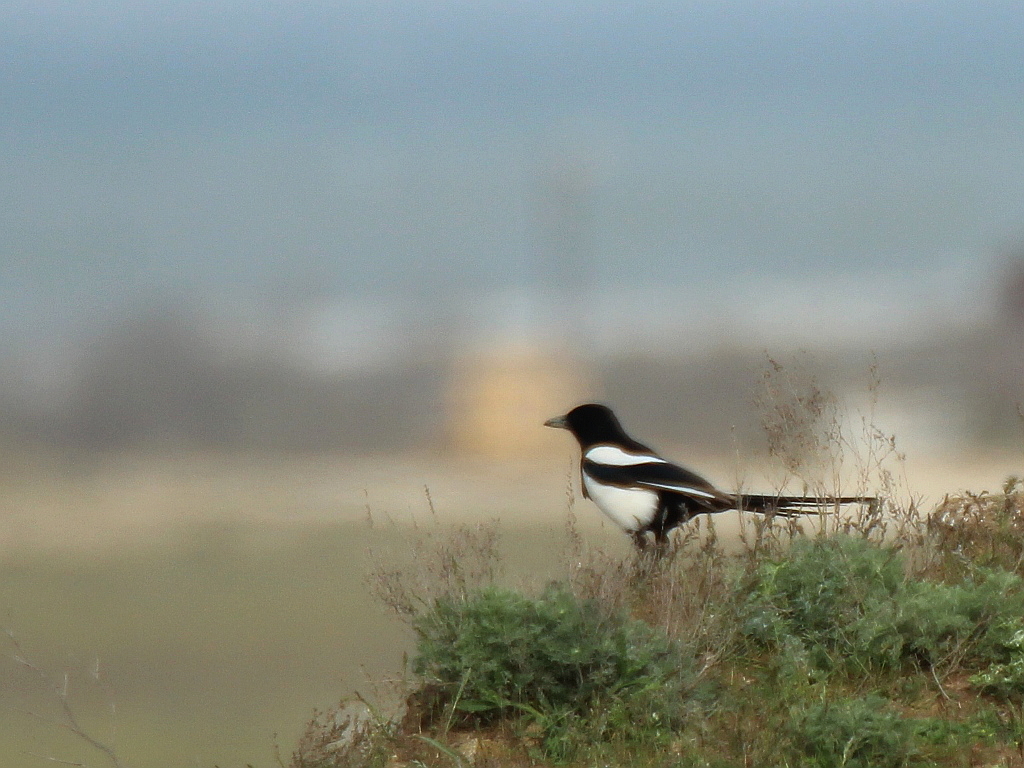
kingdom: Animalia
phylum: Chordata
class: Aves
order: Passeriformes
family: Corvidae
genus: Pica
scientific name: Pica pica
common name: Eurasian magpie
